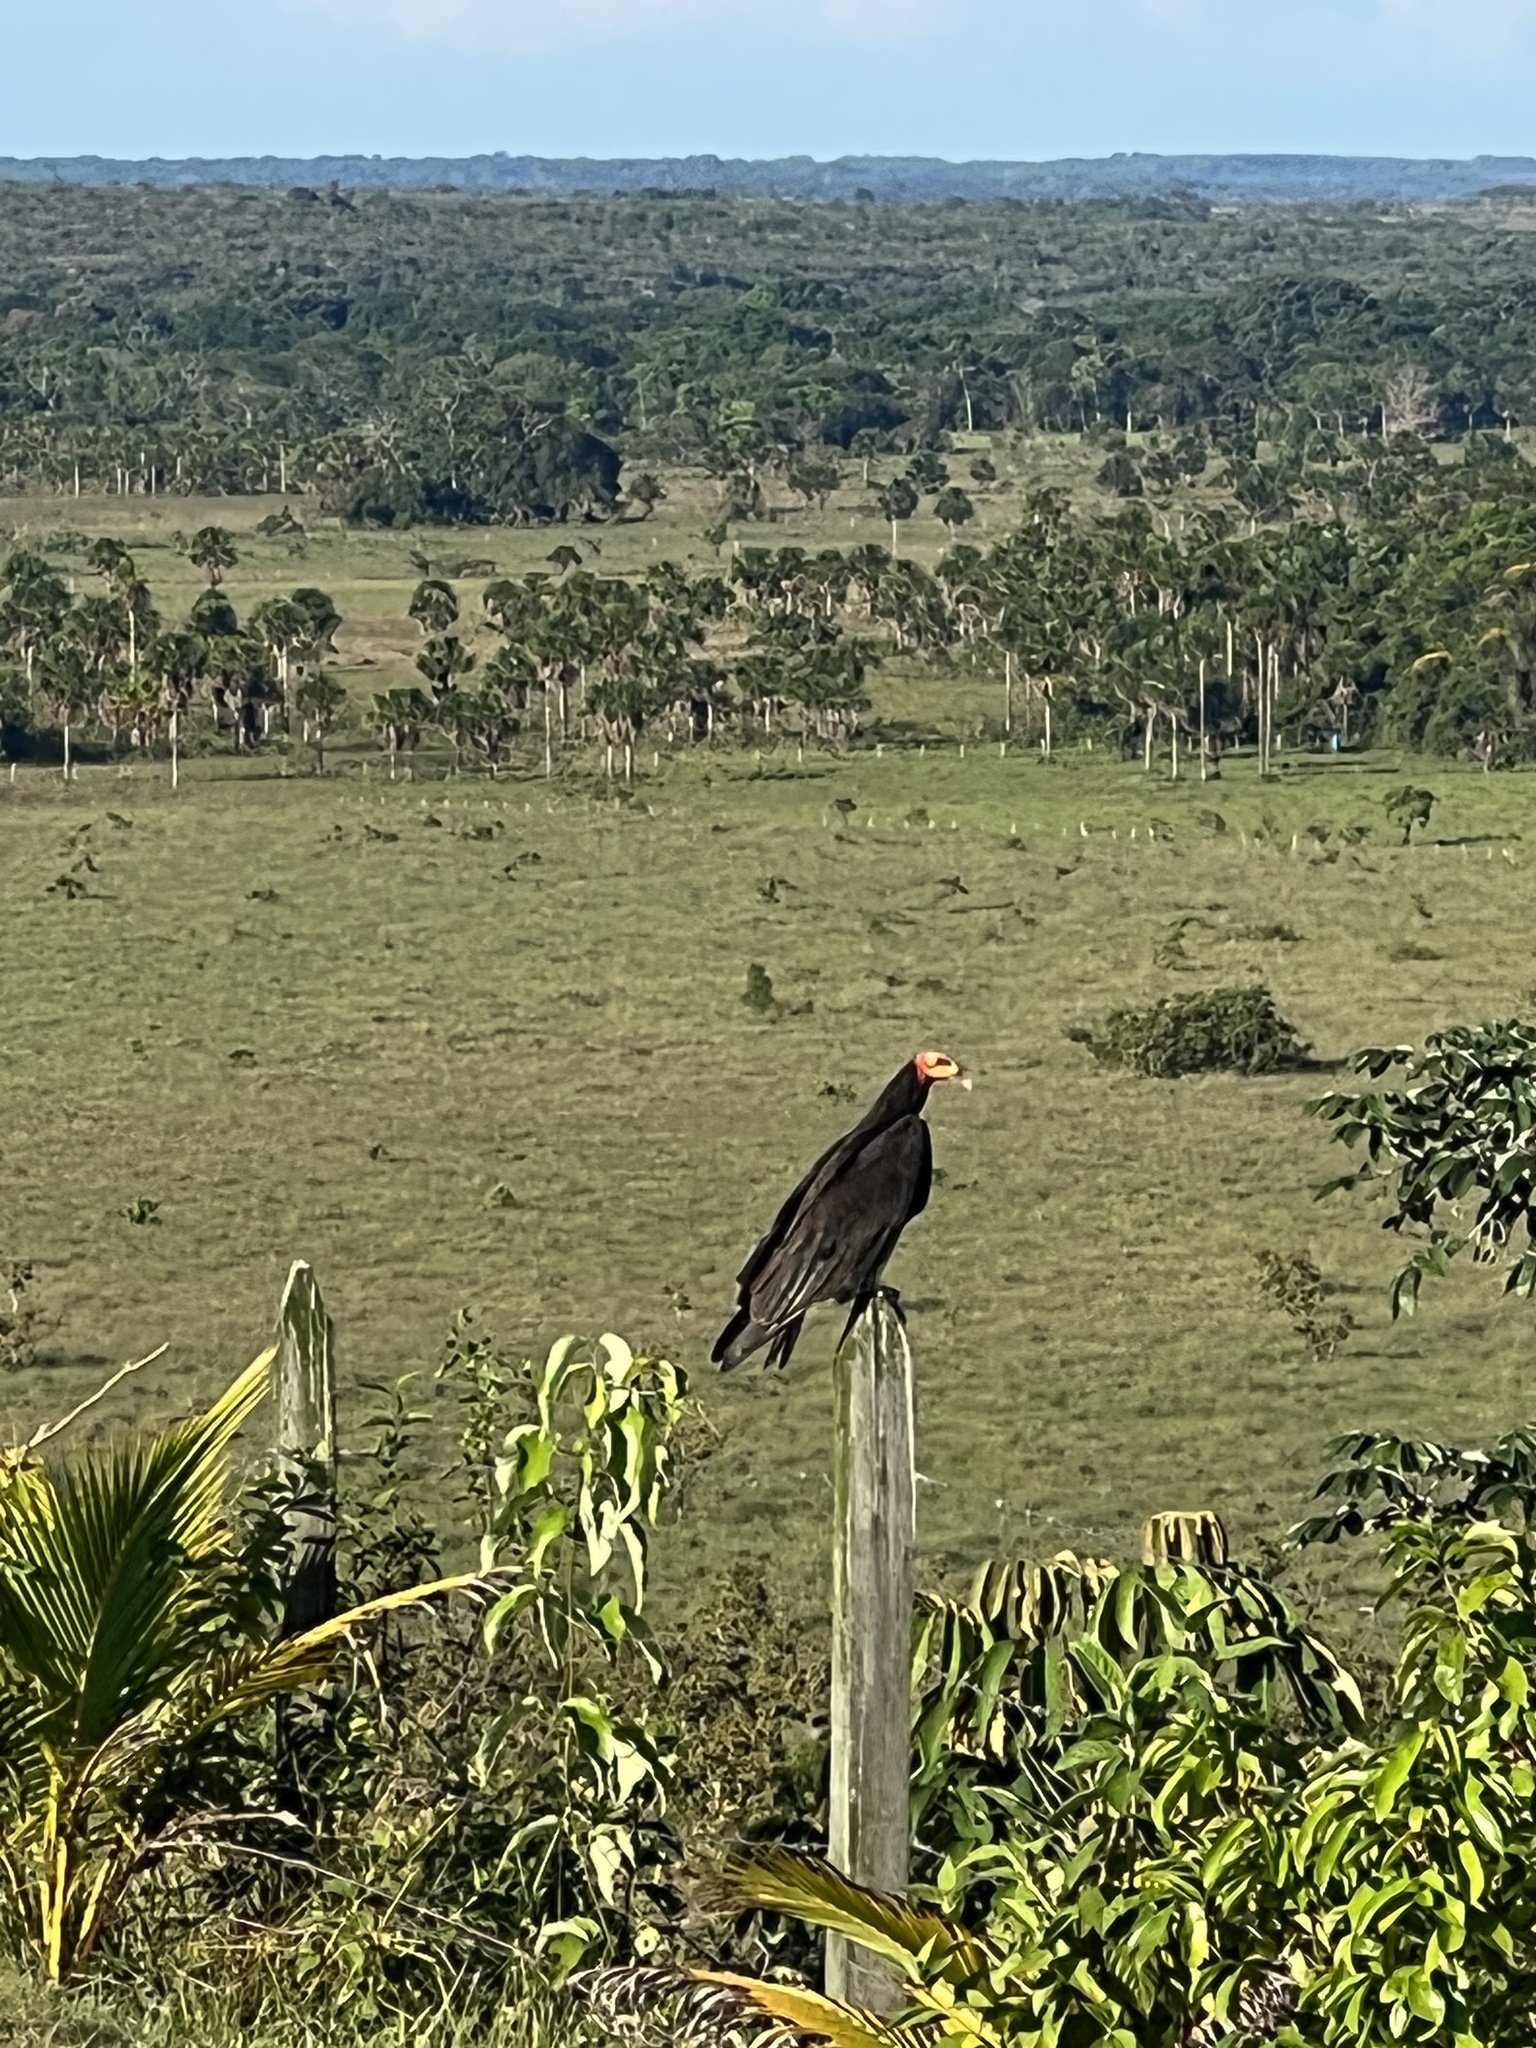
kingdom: Animalia
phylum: Chordata
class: Aves
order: Accipitriformes
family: Cathartidae
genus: Cathartes
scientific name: Cathartes melambrotus
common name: Greater yellow-headed vulture
